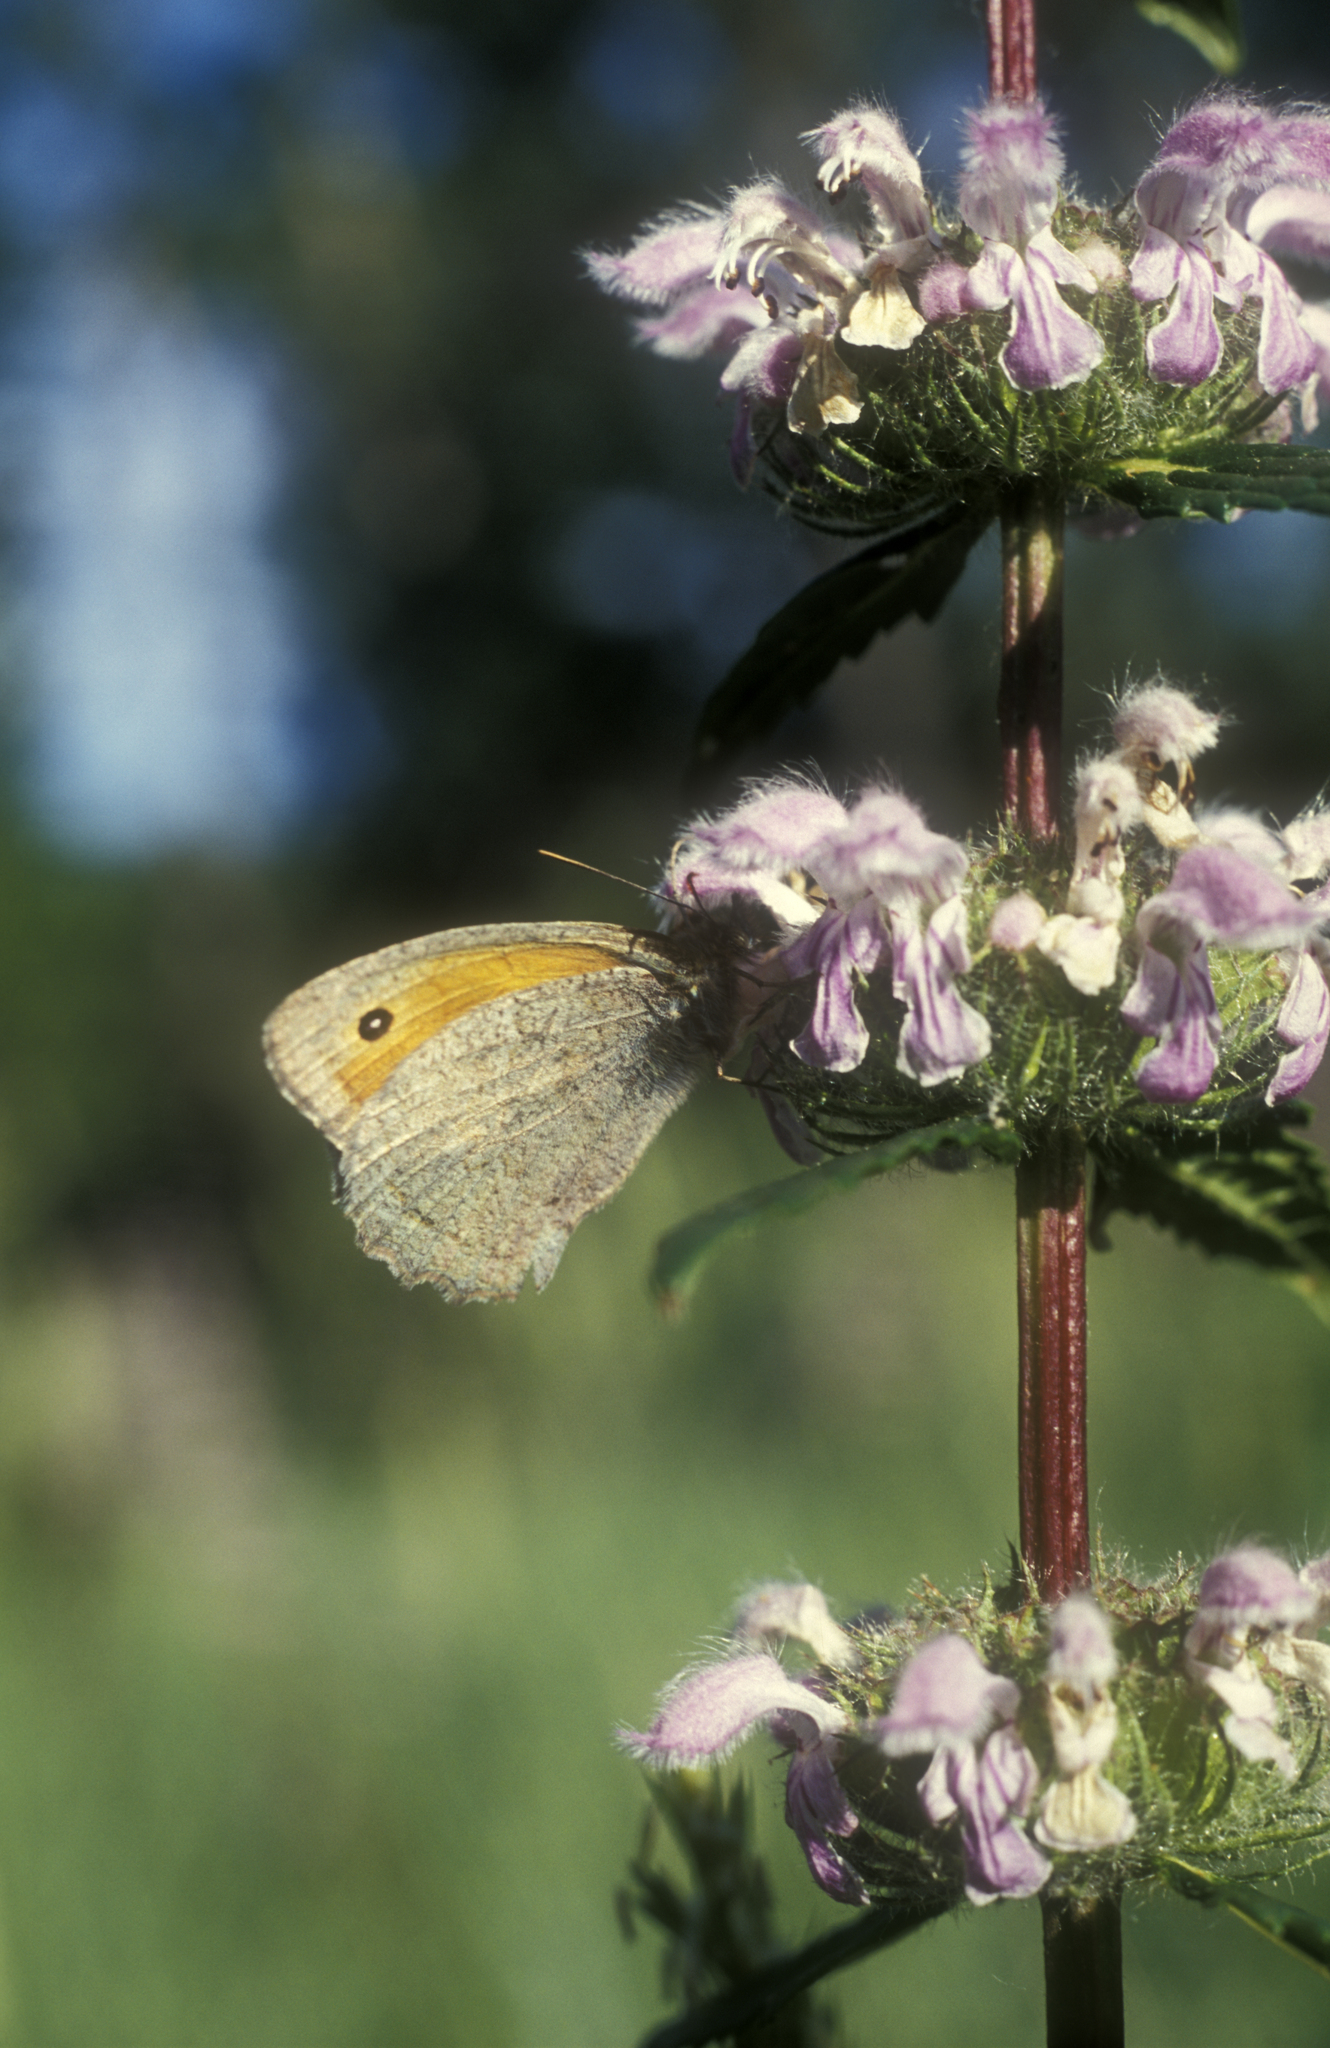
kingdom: Plantae
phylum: Tracheophyta
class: Magnoliopsida
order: Lamiales
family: Lamiaceae
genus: Phlomoides
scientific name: Phlomoides tuberosa
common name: Tuberous jerusalem sage
